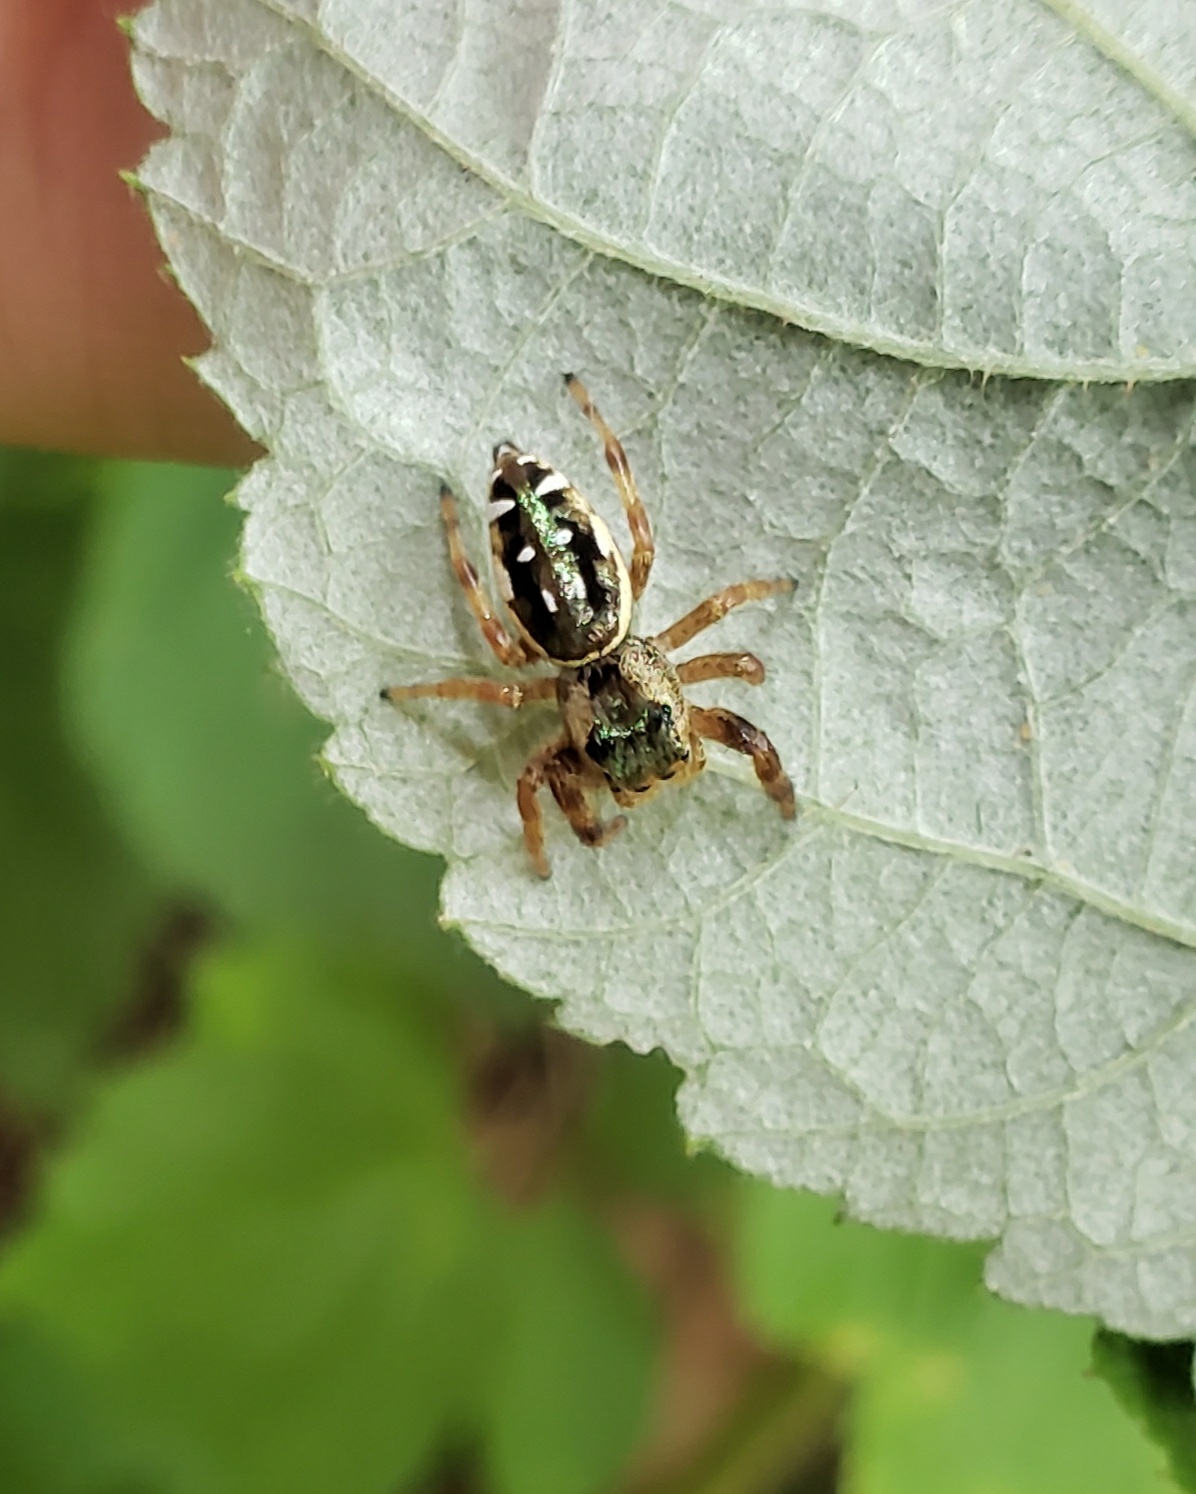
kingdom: Animalia
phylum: Arthropoda
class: Arachnida
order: Araneae
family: Salticidae
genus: Paraphidippus
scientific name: Paraphidippus aurantius
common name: Jumping spiders
